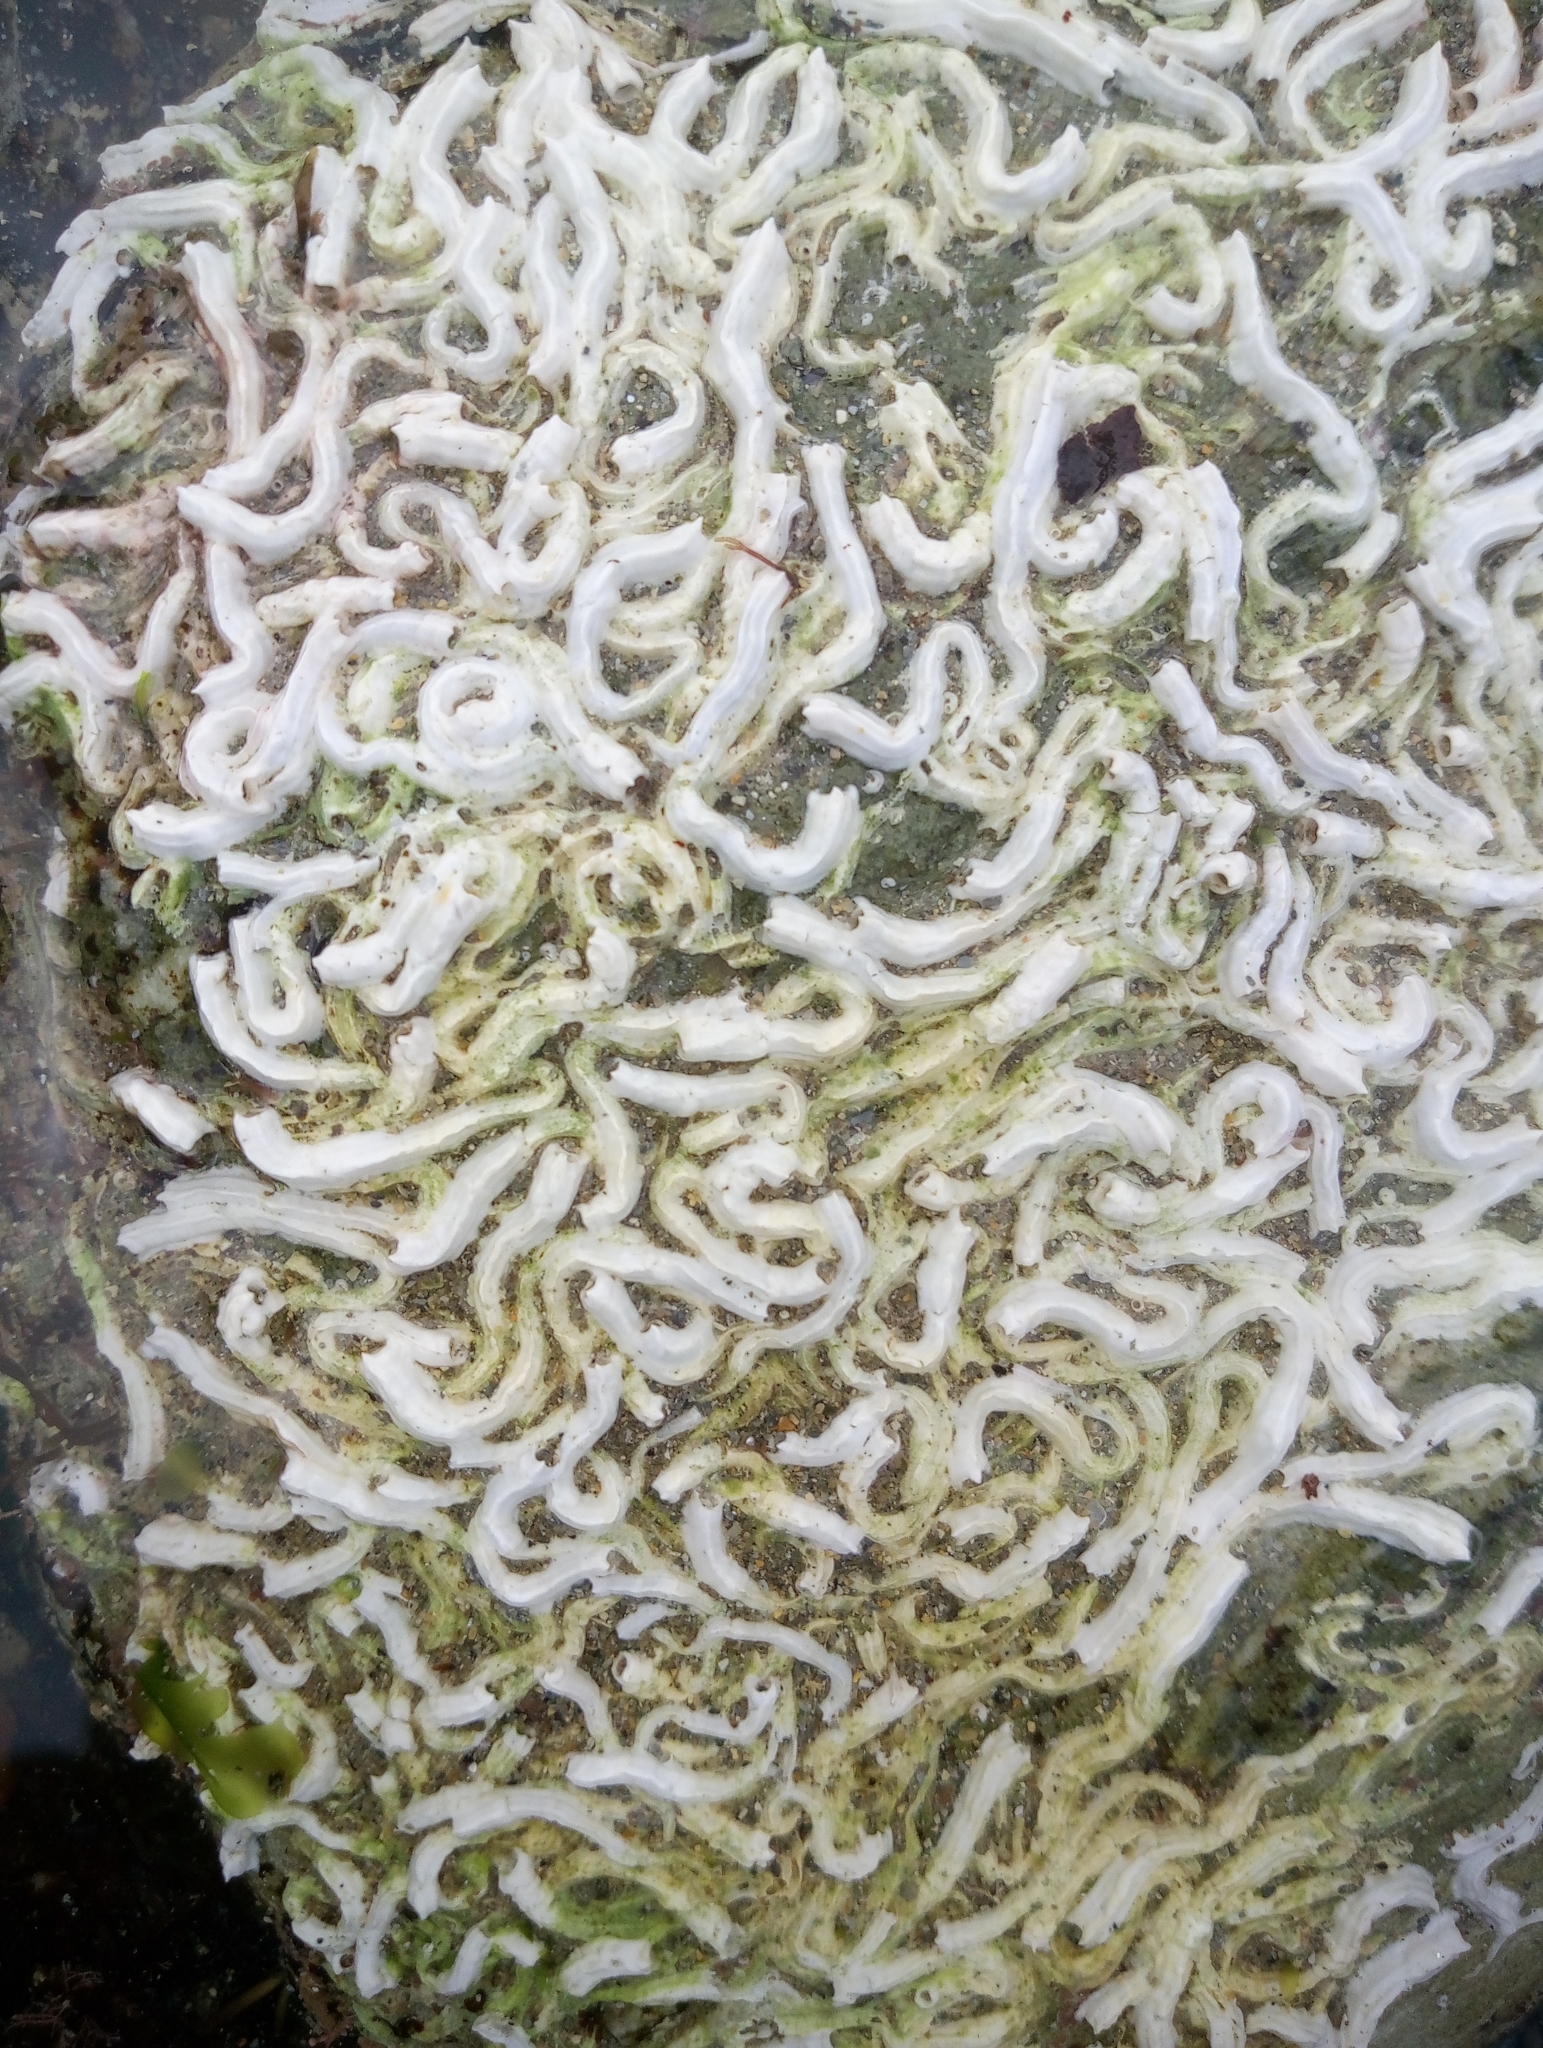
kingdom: Animalia
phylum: Annelida
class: Polychaeta
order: Sabellida
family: Serpulidae
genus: Spirobranchus
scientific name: Spirobranchus triqueter
